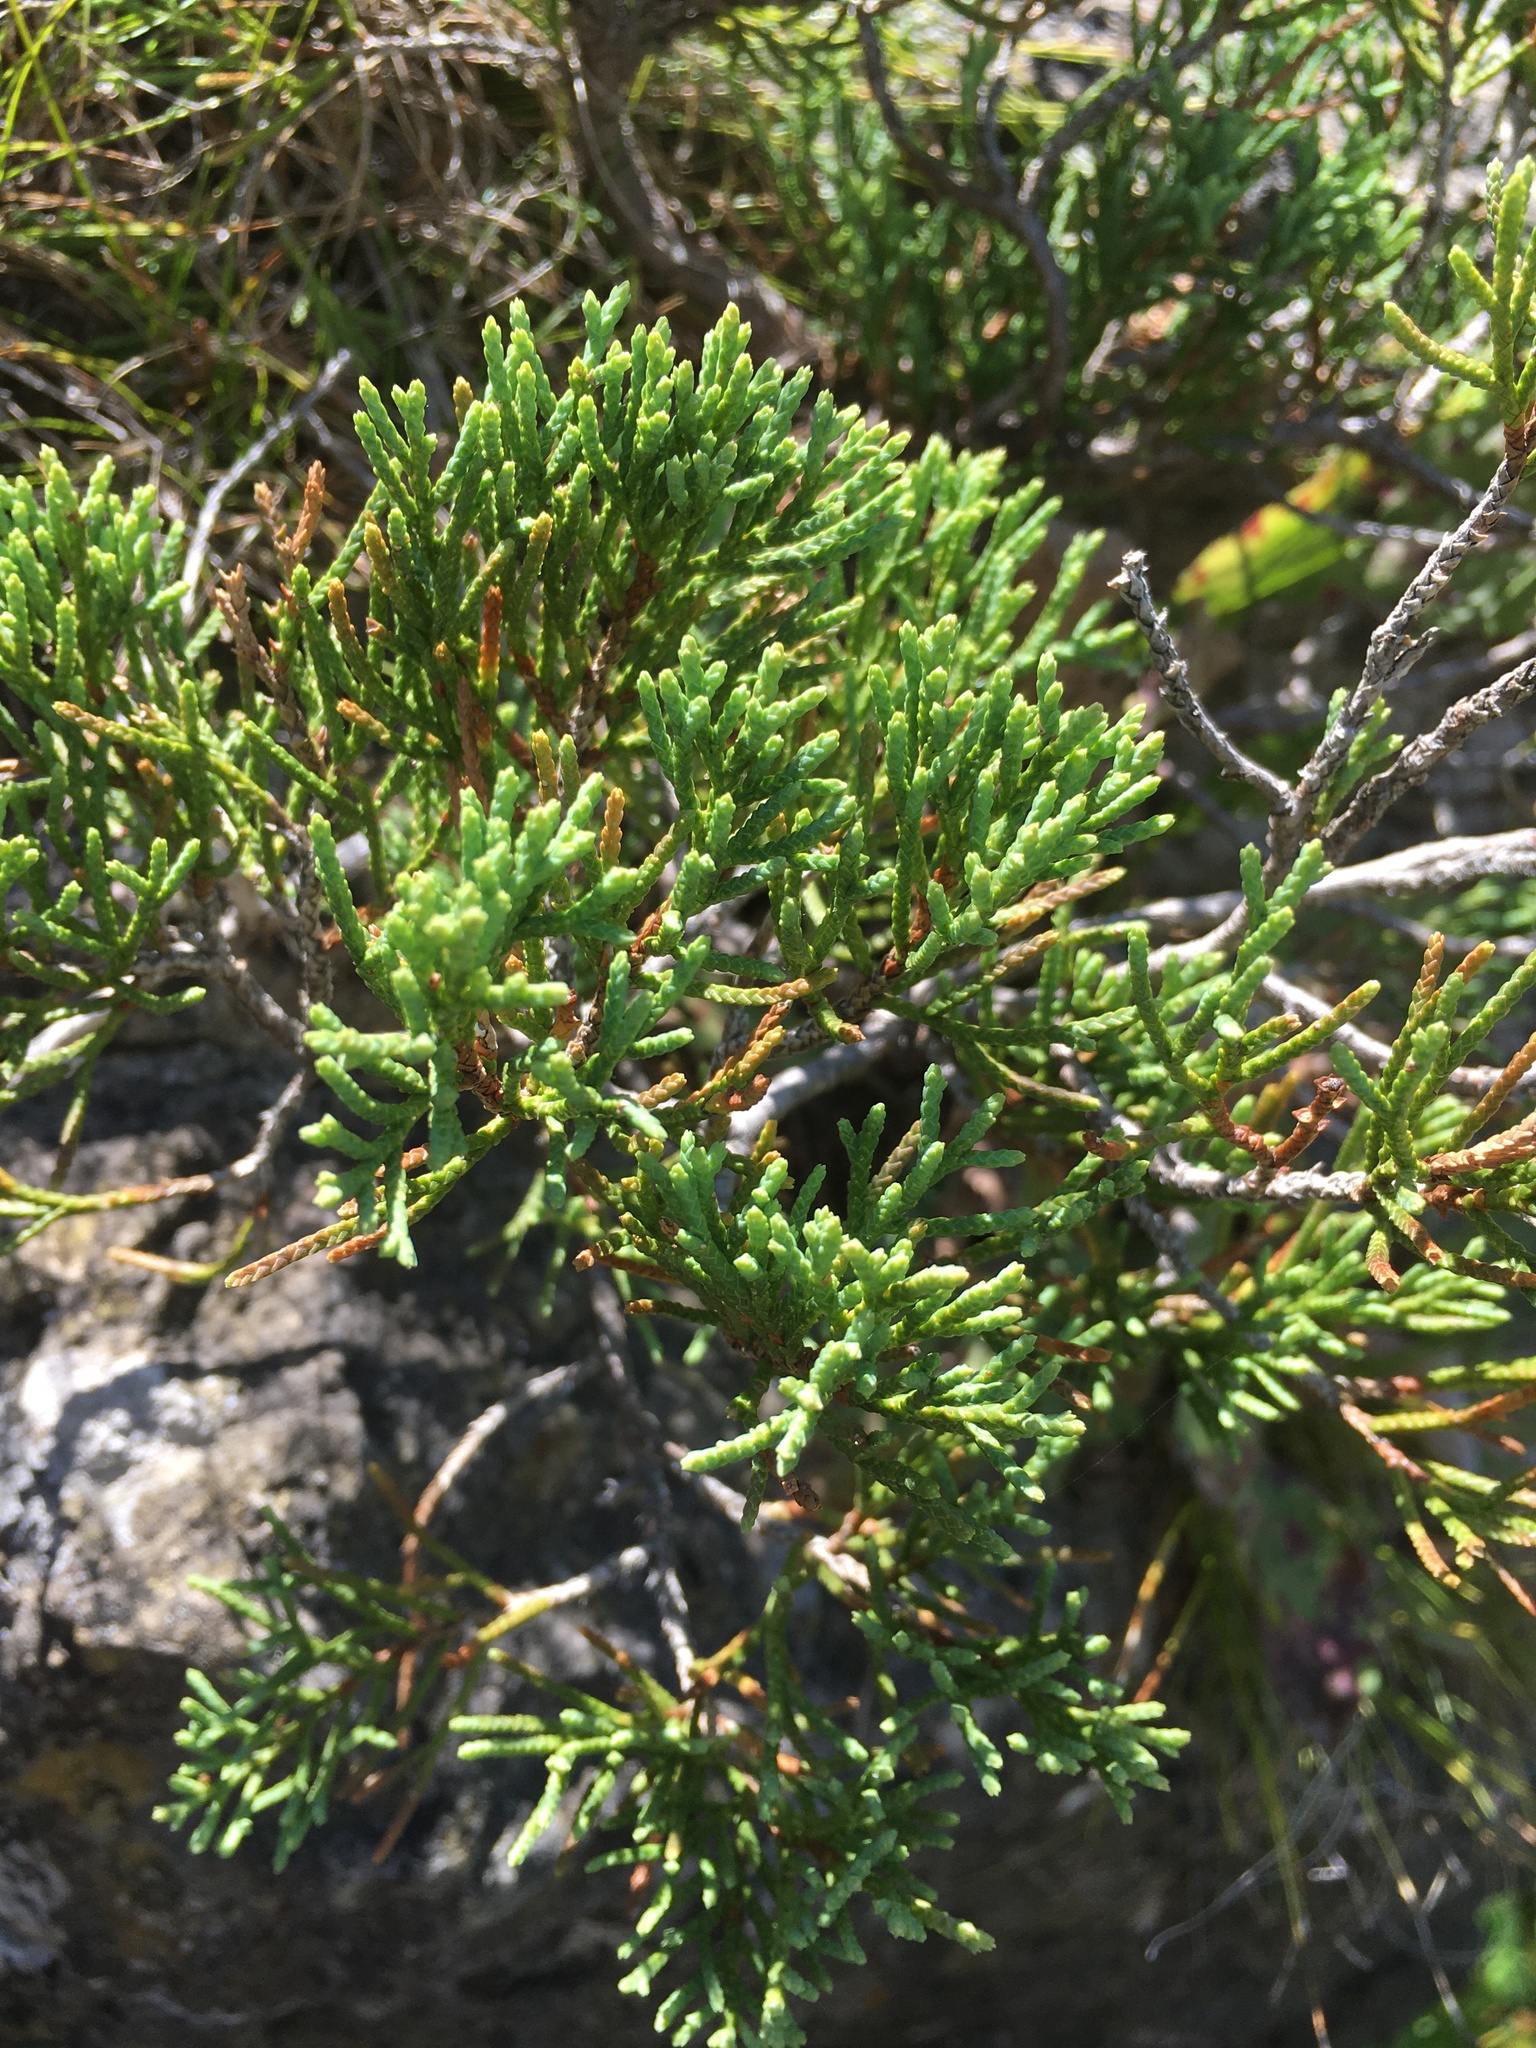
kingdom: Plantae
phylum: Tracheophyta
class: Pinopsida
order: Pinales
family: Cupressaceae
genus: Juniperus
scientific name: Juniperus virginiana
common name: Red juniper
